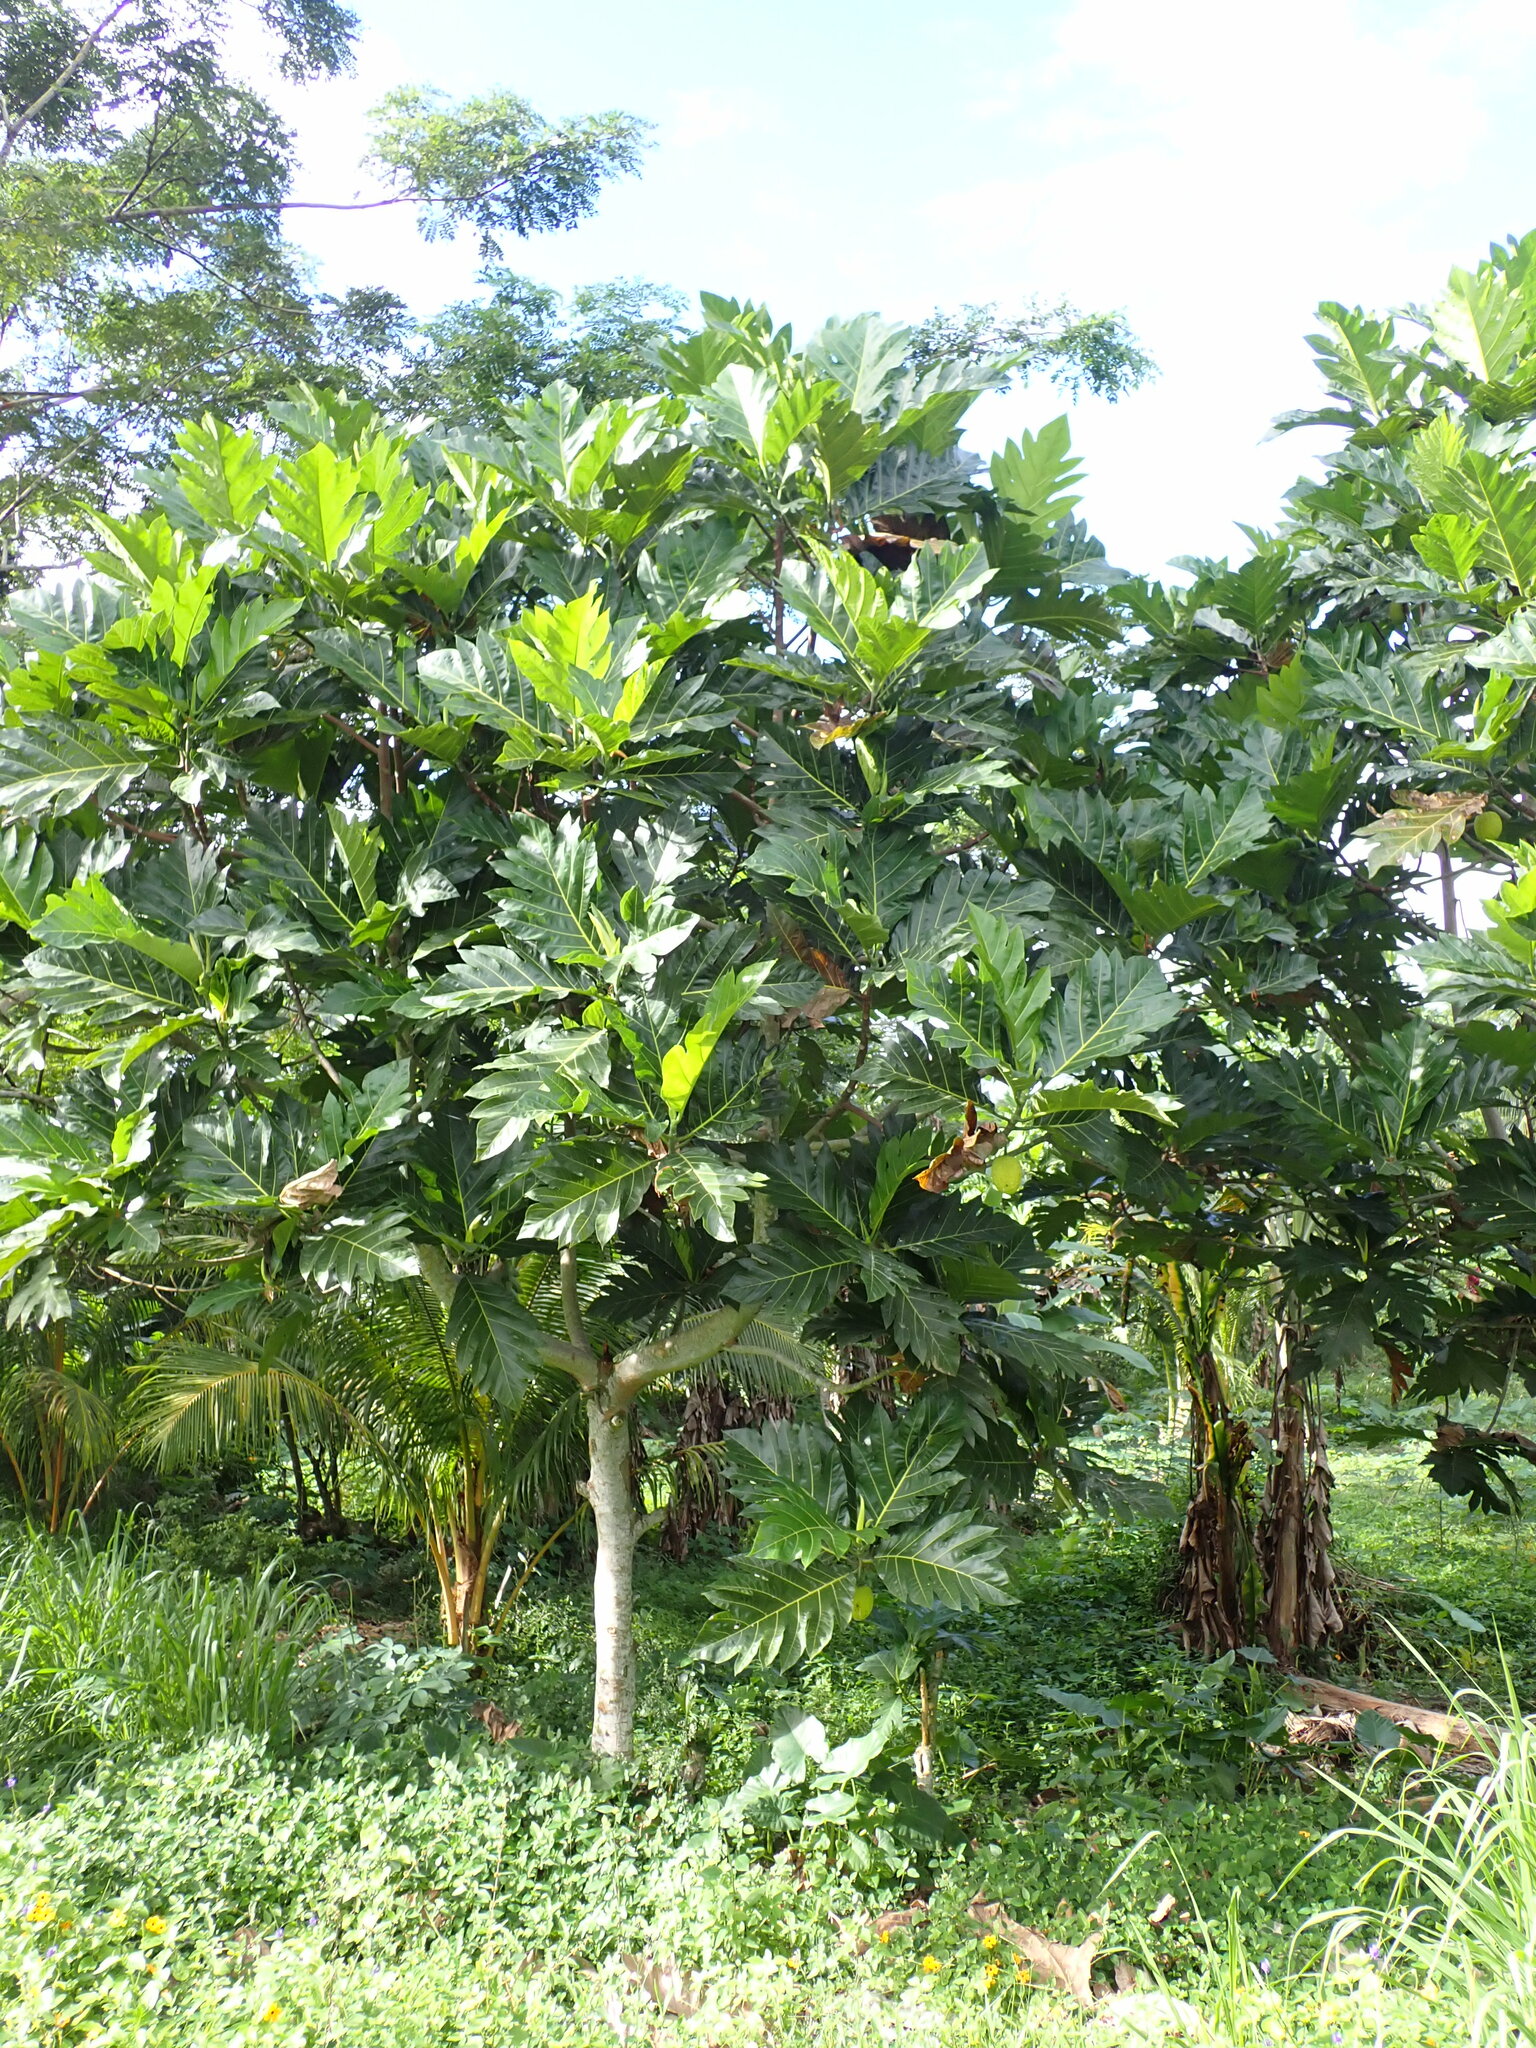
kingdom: Plantae
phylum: Tracheophyta
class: Magnoliopsida
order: Rosales
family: Moraceae
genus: Artocarpus
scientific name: Artocarpus altilis
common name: Breadfruit
